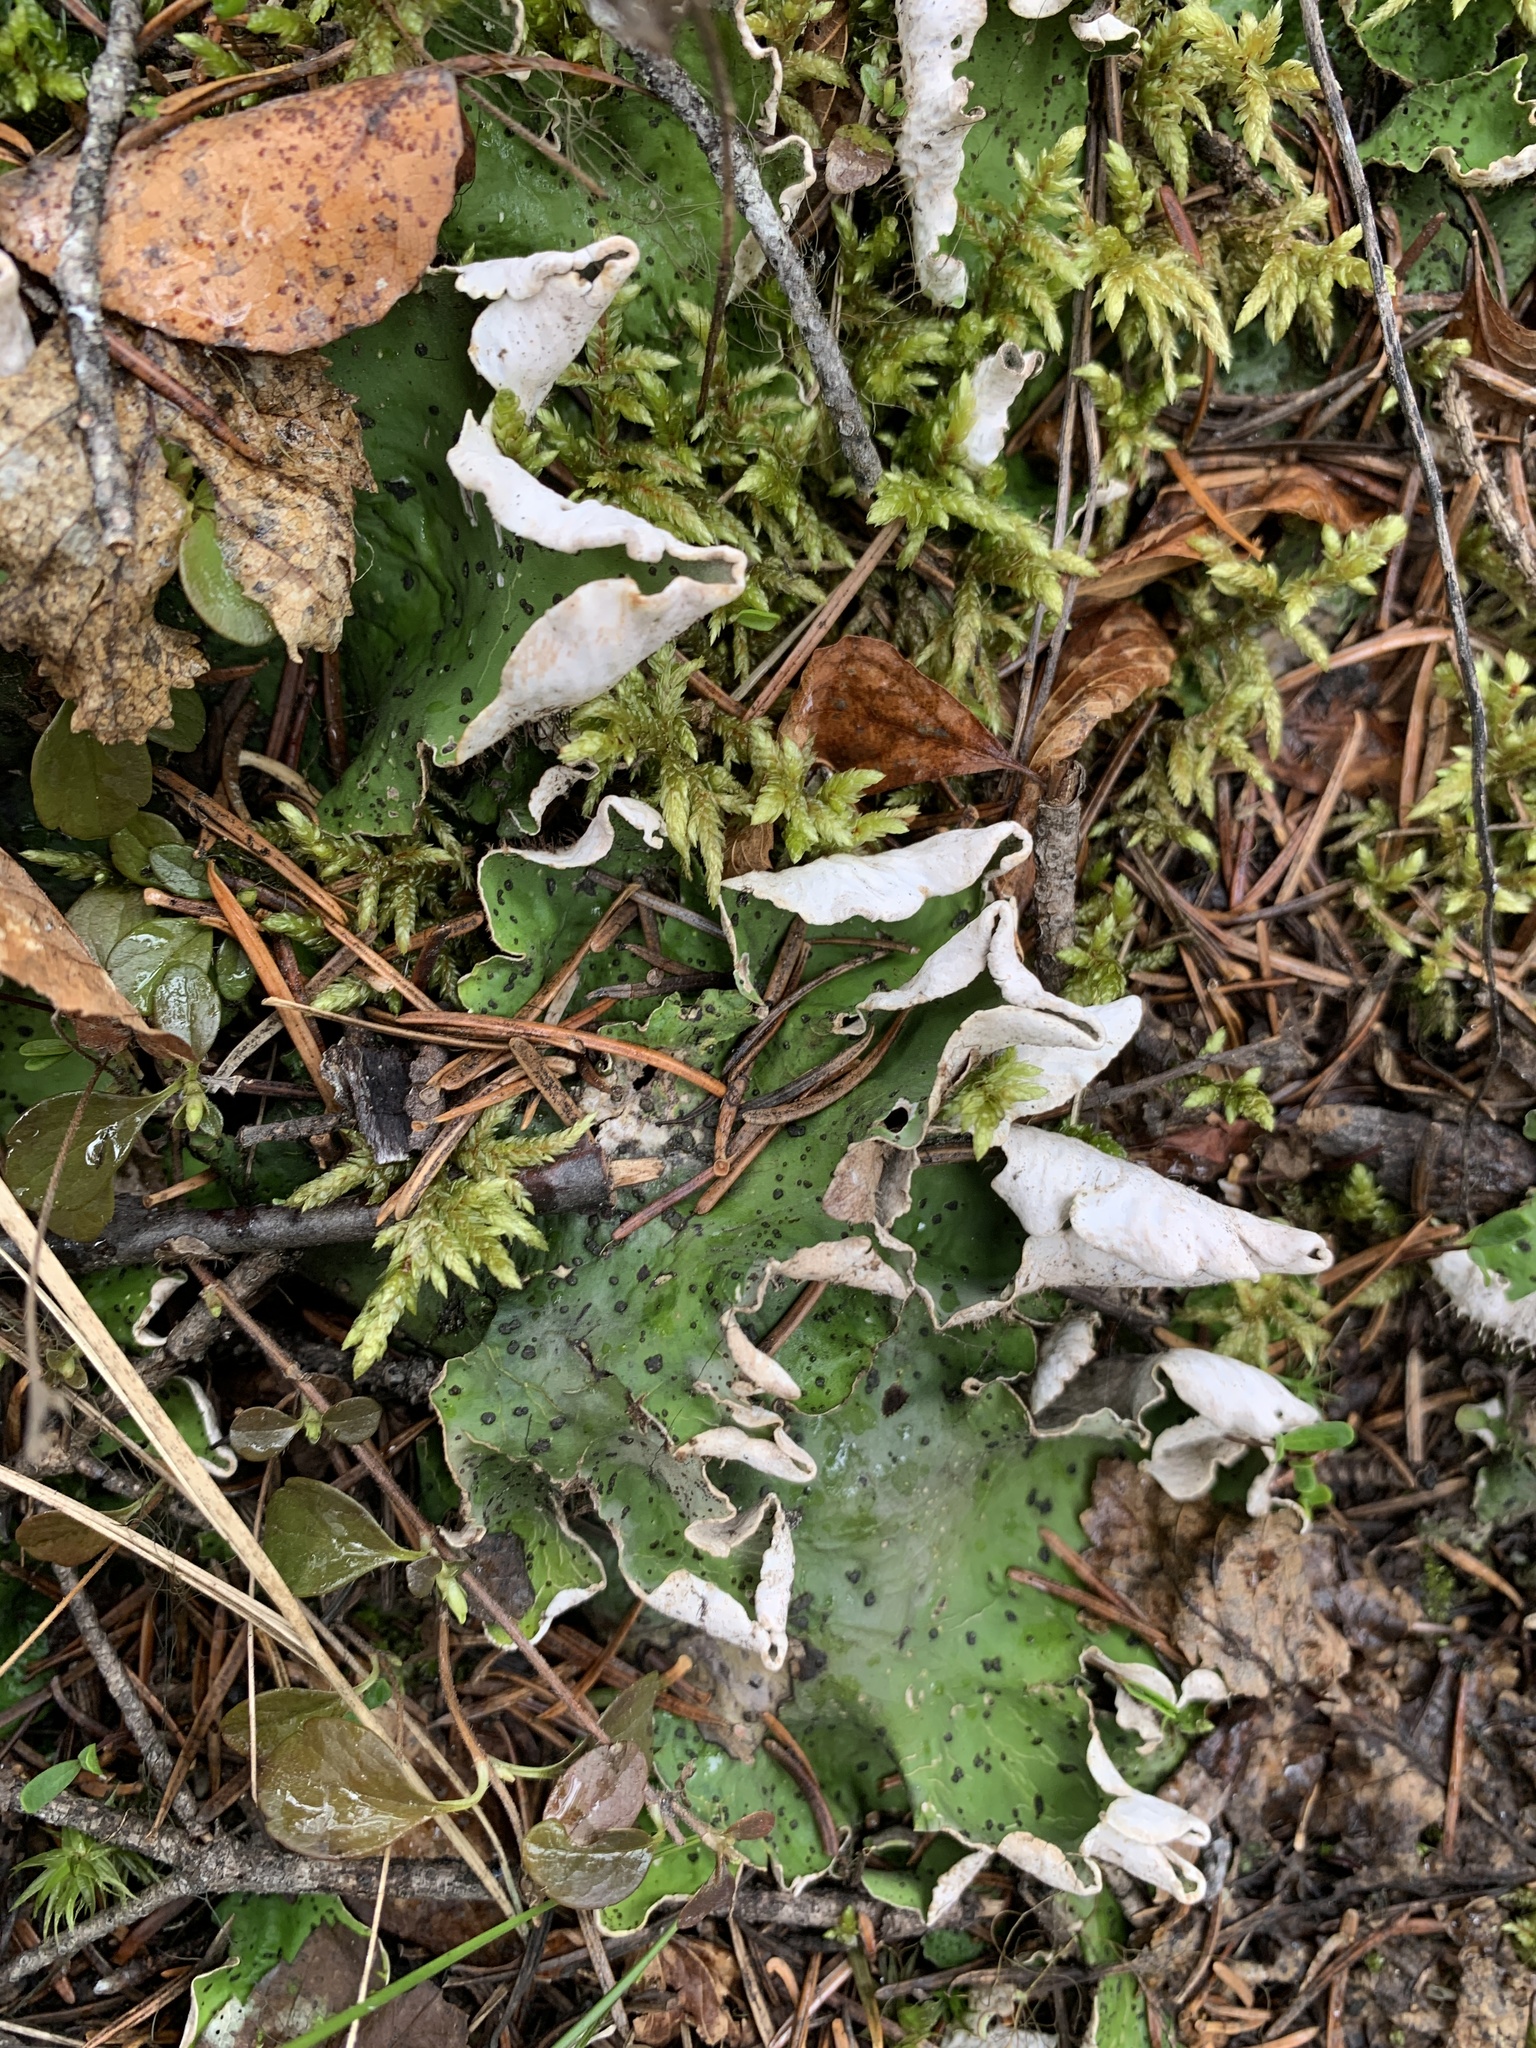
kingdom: Fungi
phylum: Ascomycota
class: Lecanoromycetes
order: Peltigerales
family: Peltigeraceae
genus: Peltigera
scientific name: Peltigera aphthosa
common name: Common freckle pelt lichen
